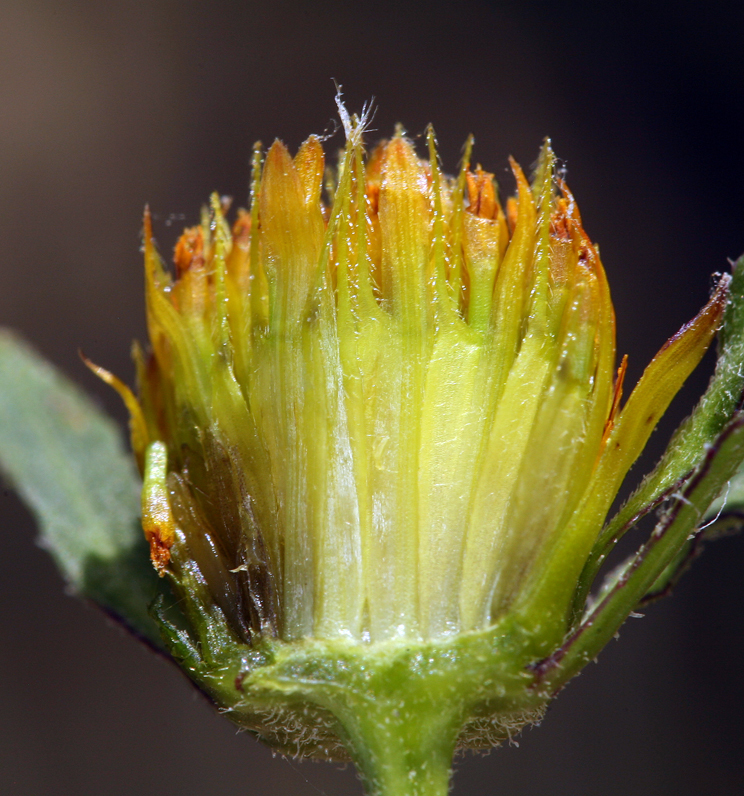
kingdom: Plantae
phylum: Tracheophyta
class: Magnoliopsida
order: Asterales
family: Asteraceae
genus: Bidens
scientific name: Bidens frondosa
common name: Beggarticks
